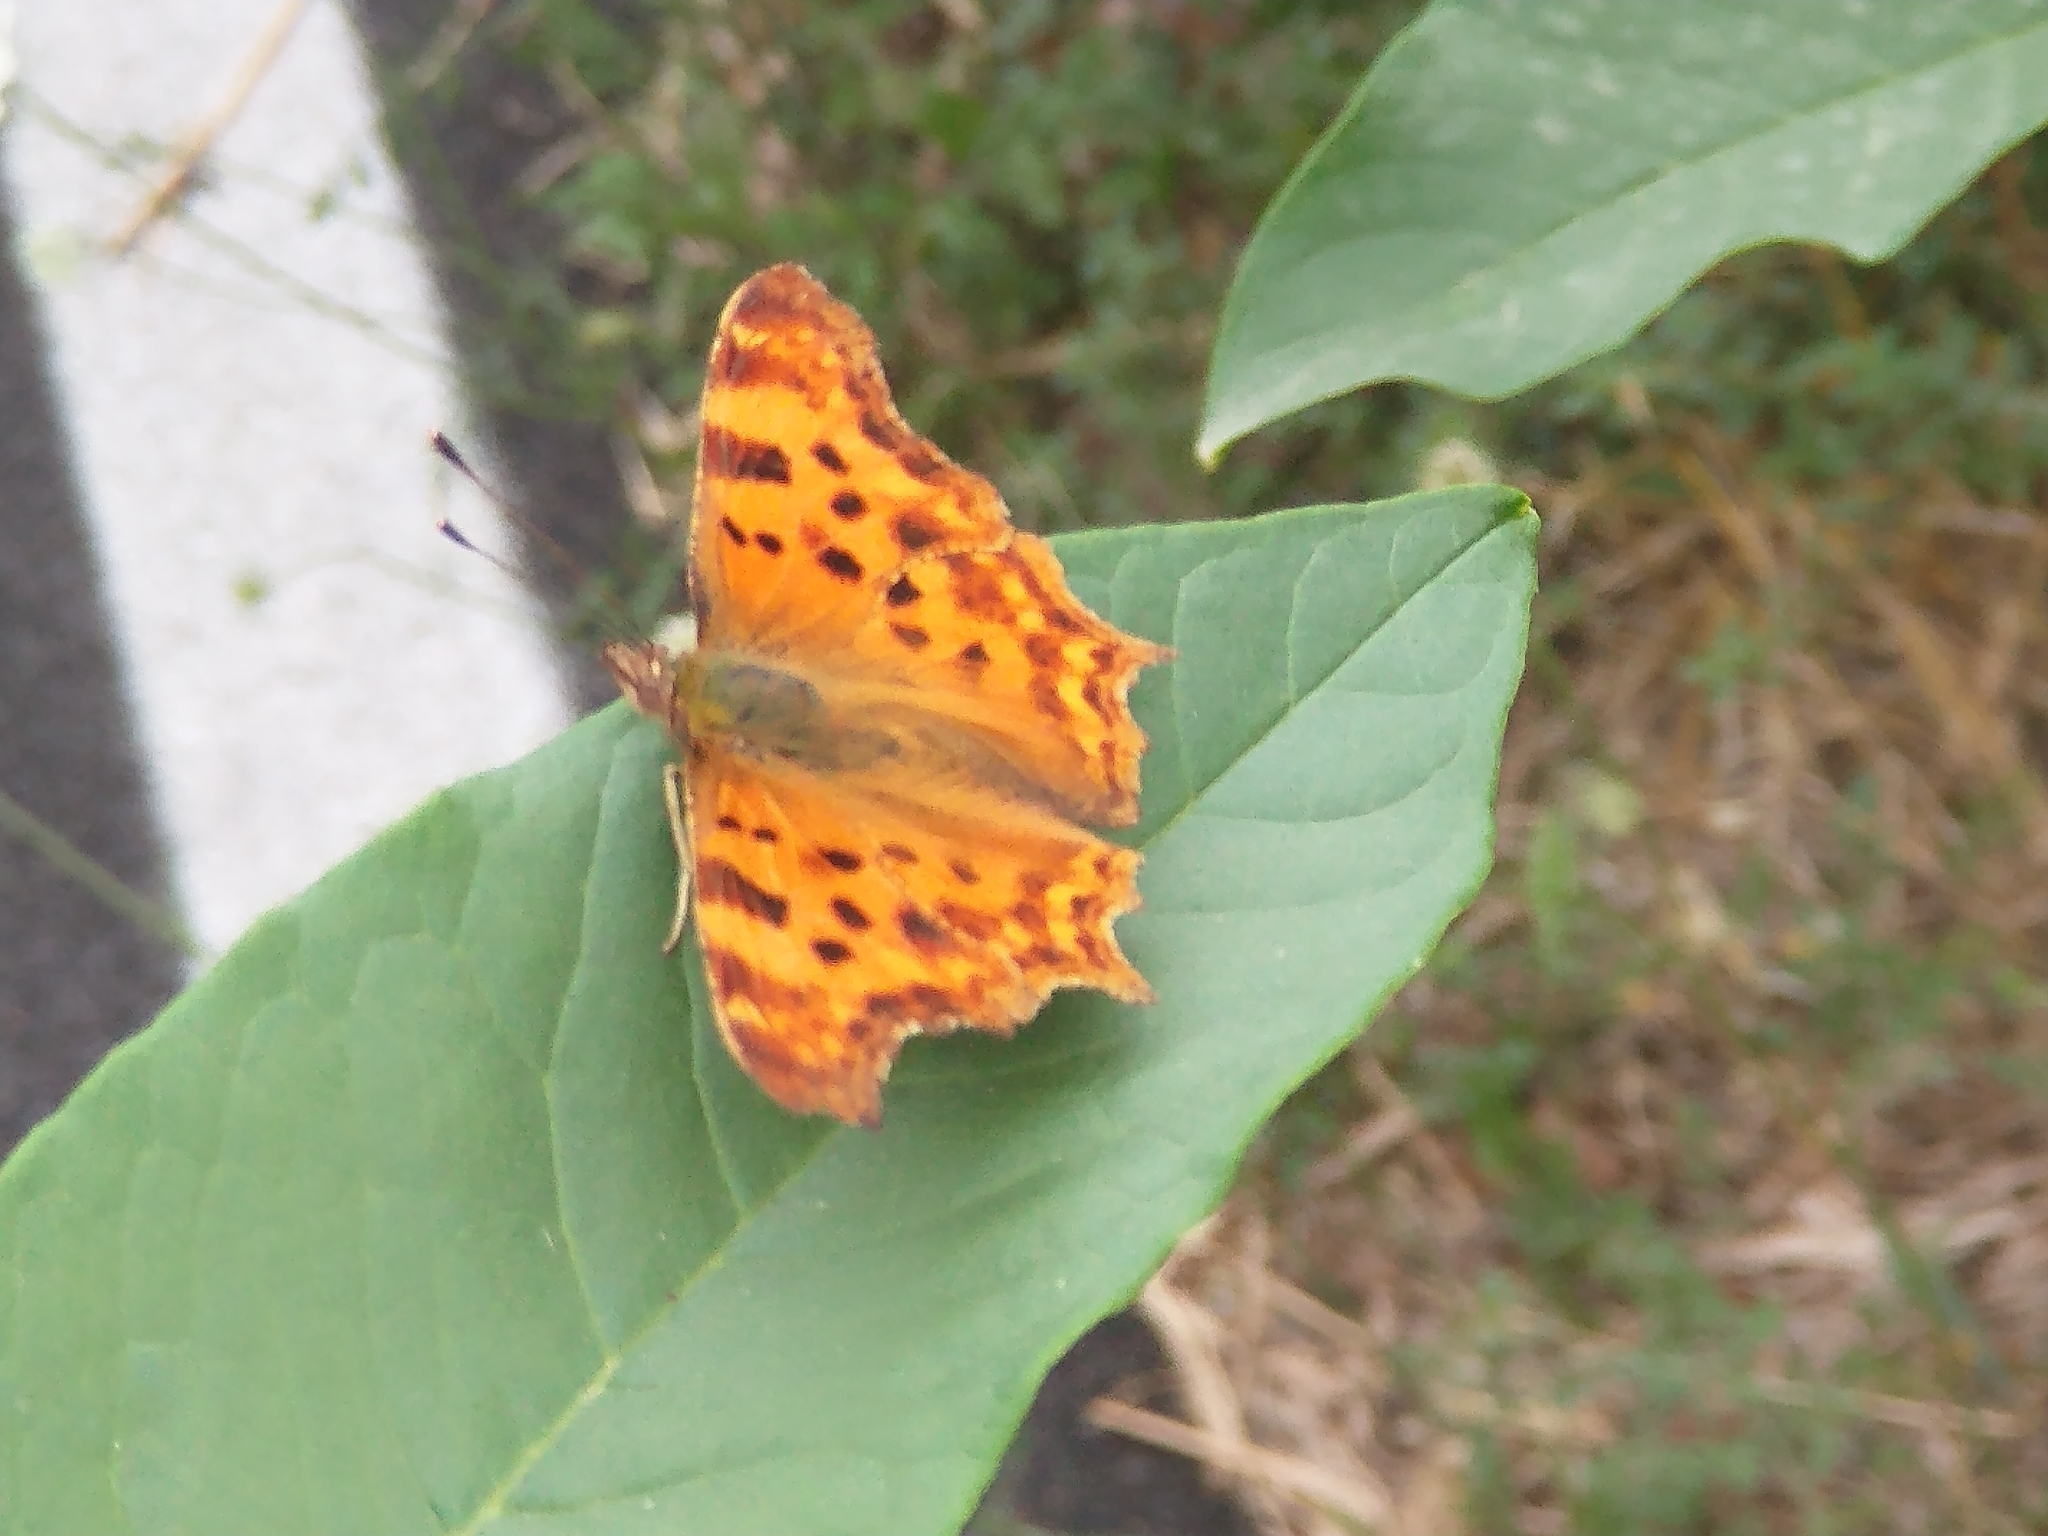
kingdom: Animalia
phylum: Arthropoda
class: Insecta
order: Lepidoptera
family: Nymphalidae
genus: Polygonia
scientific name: Polygonia c-album
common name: Comma
